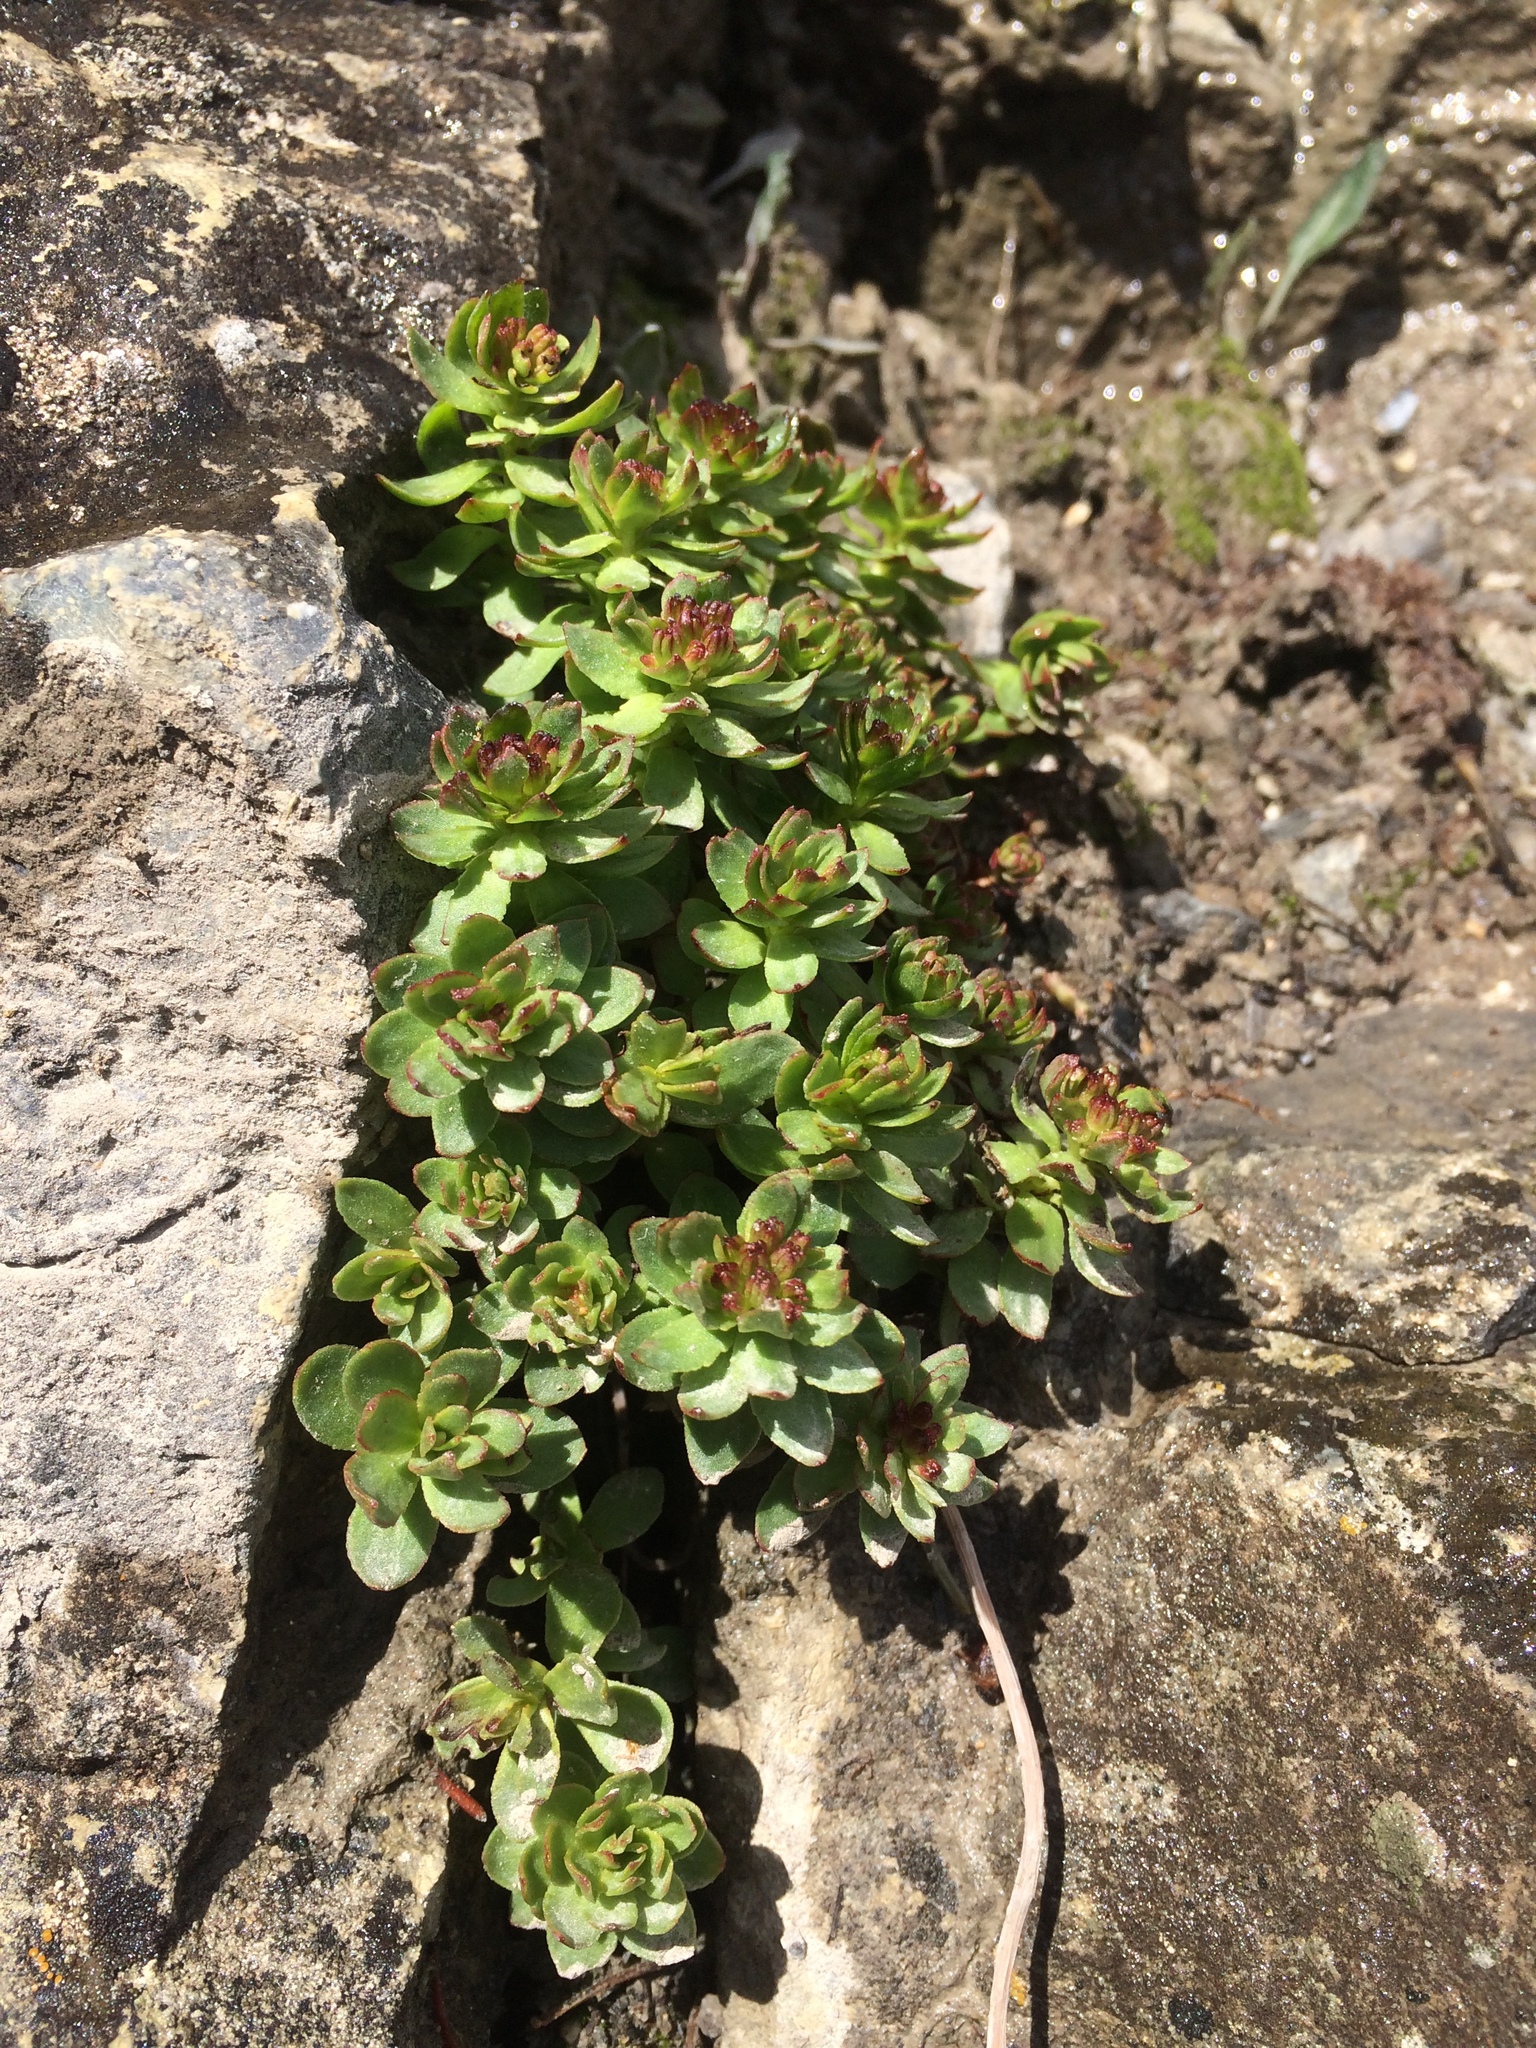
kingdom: Plantae
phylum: Tracheophyta
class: Magnoliopsida
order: Saxifragales
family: Crassulaceae
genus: Rhodiola
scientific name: Rhodiola integrifolia
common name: Western roseroot
